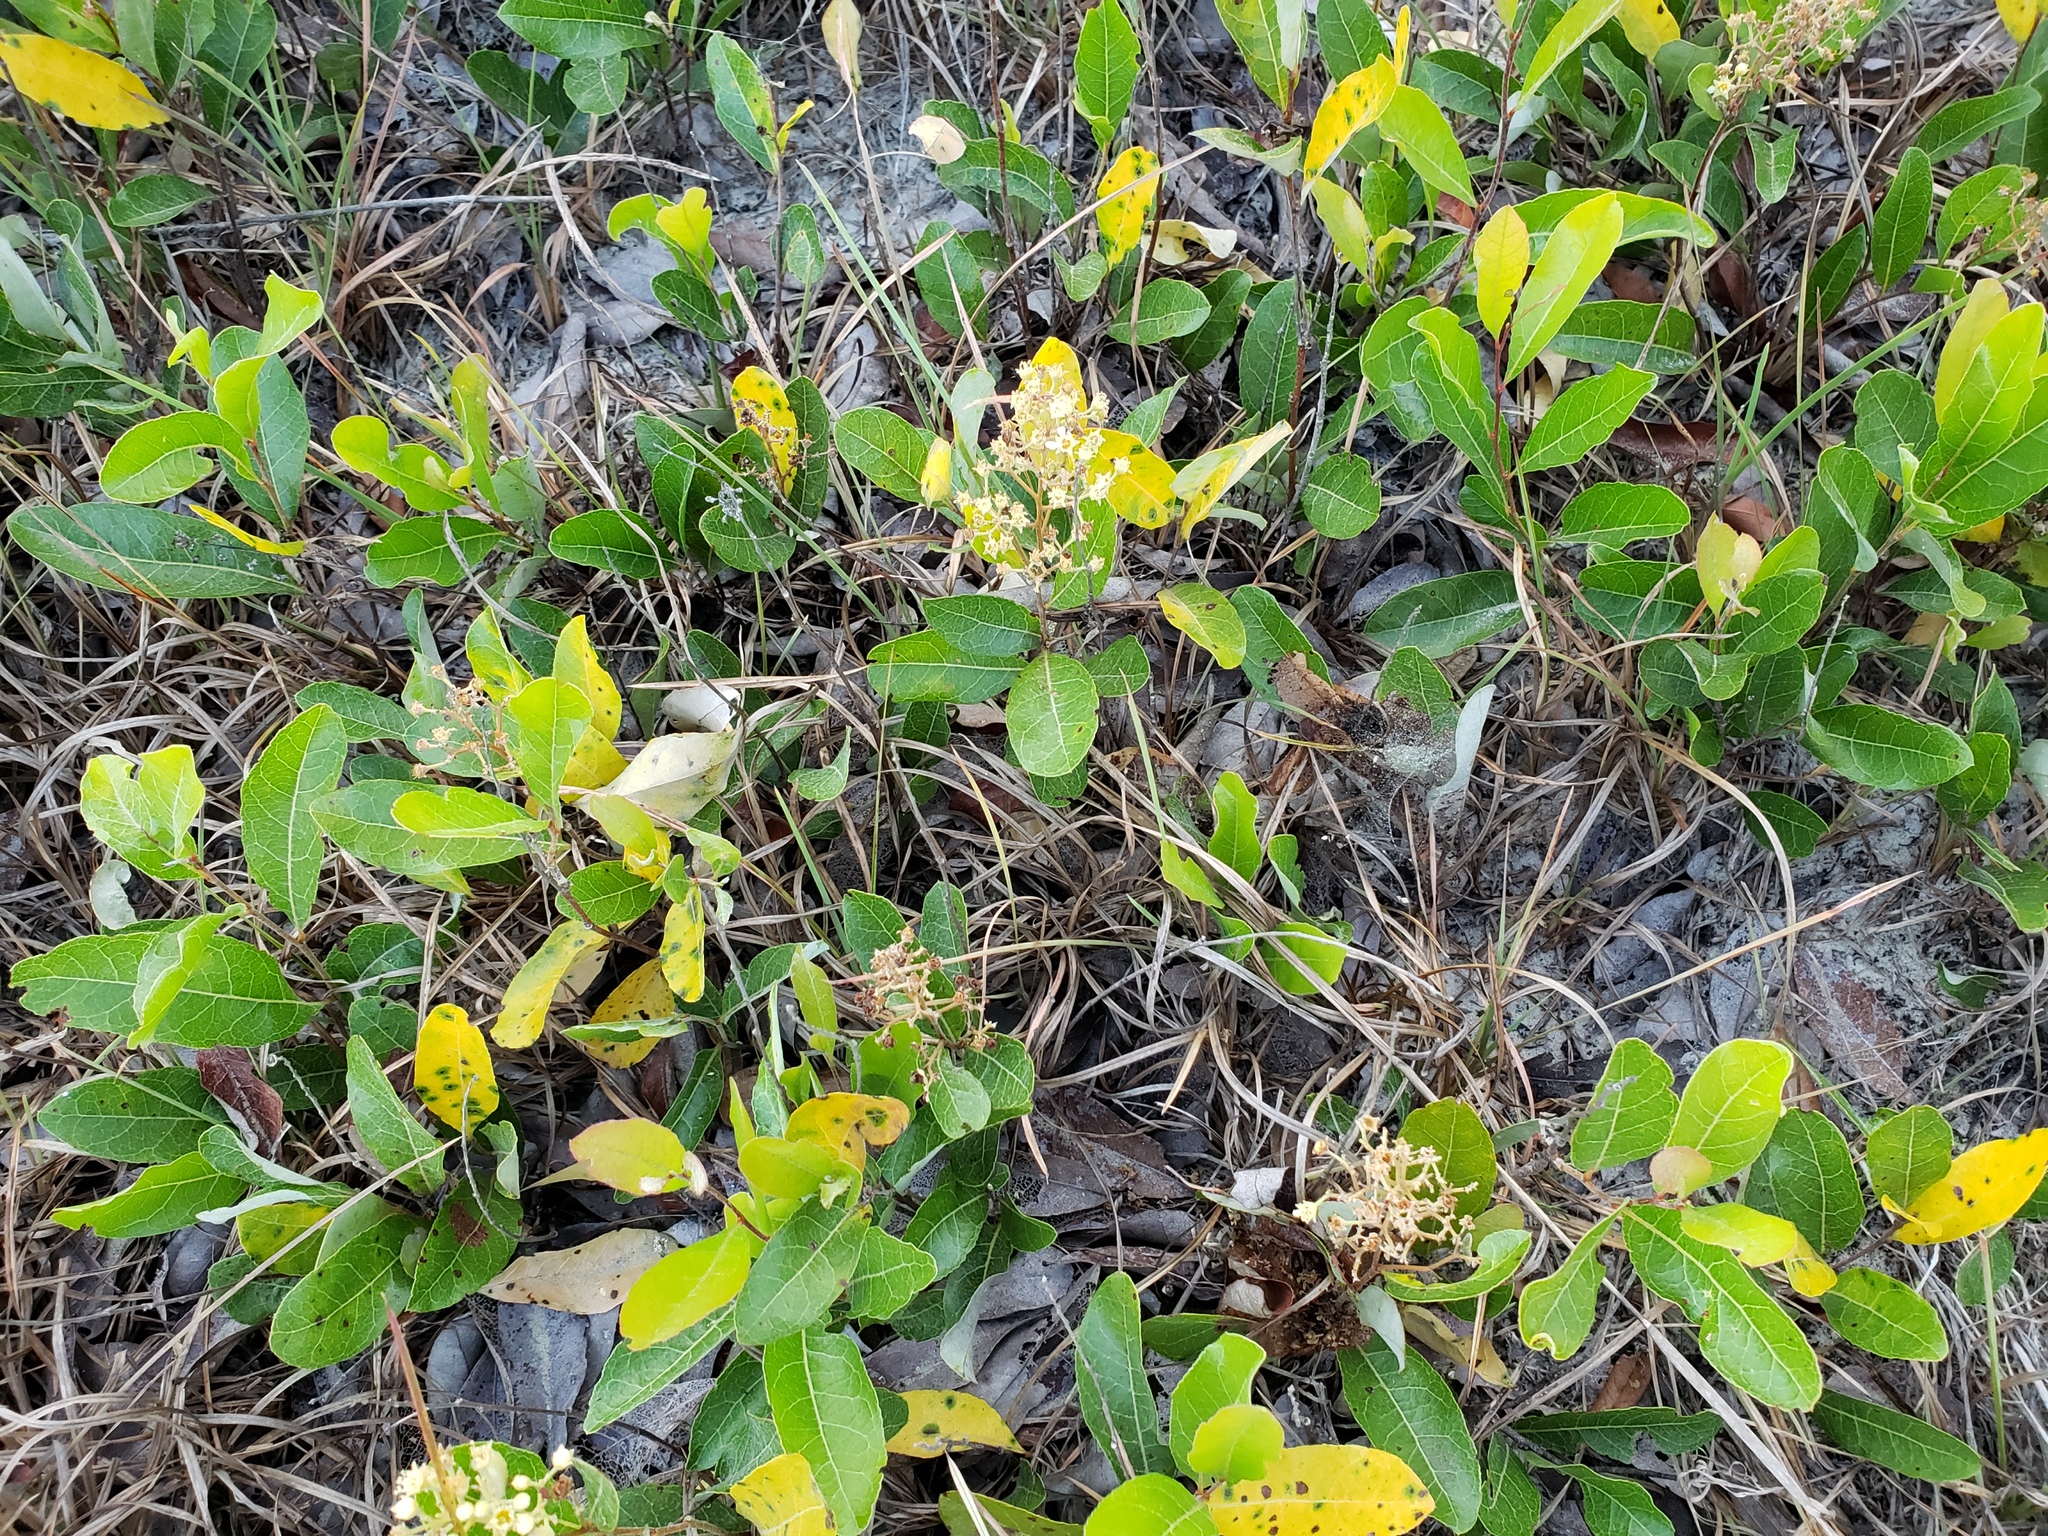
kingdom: Plantae
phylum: Tracheophyta
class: Magnoliopsida
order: Malpighiales
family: Chrysobalanaceae
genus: Geobalanus
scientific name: Geobalanus oblongifolius
